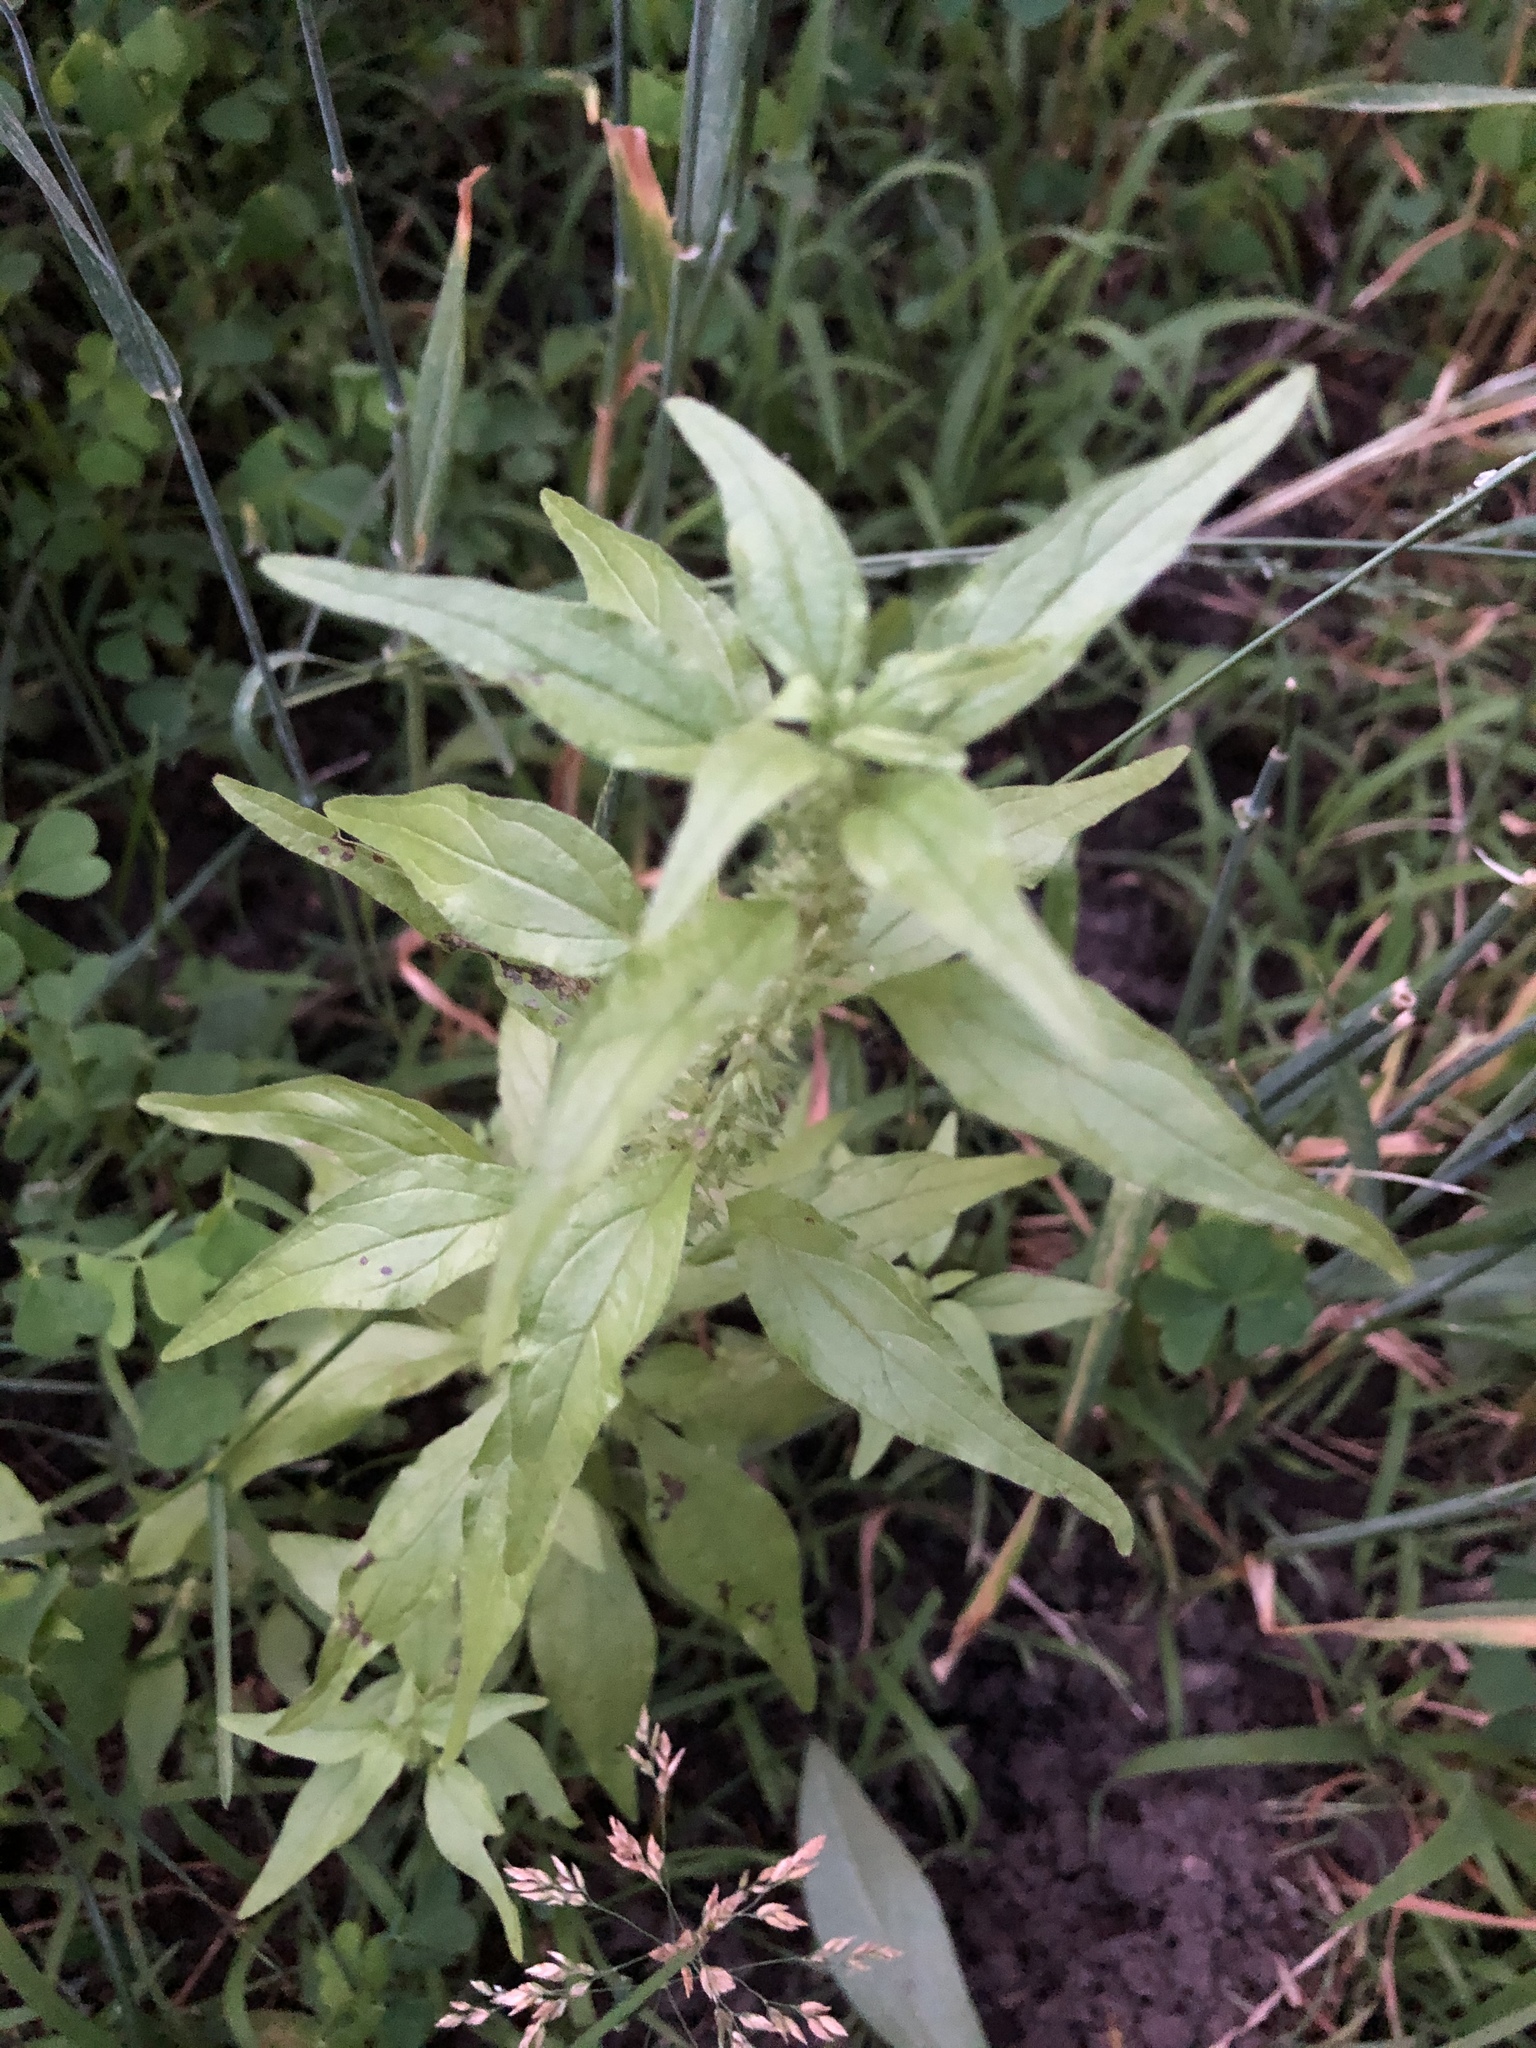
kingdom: Plantae
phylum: Tracheophyta
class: Magnoliopsida
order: Rosales
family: Urticaceae
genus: Parietaria
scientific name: Parietaria pensylvanica
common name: Pennsylvania pellitory
